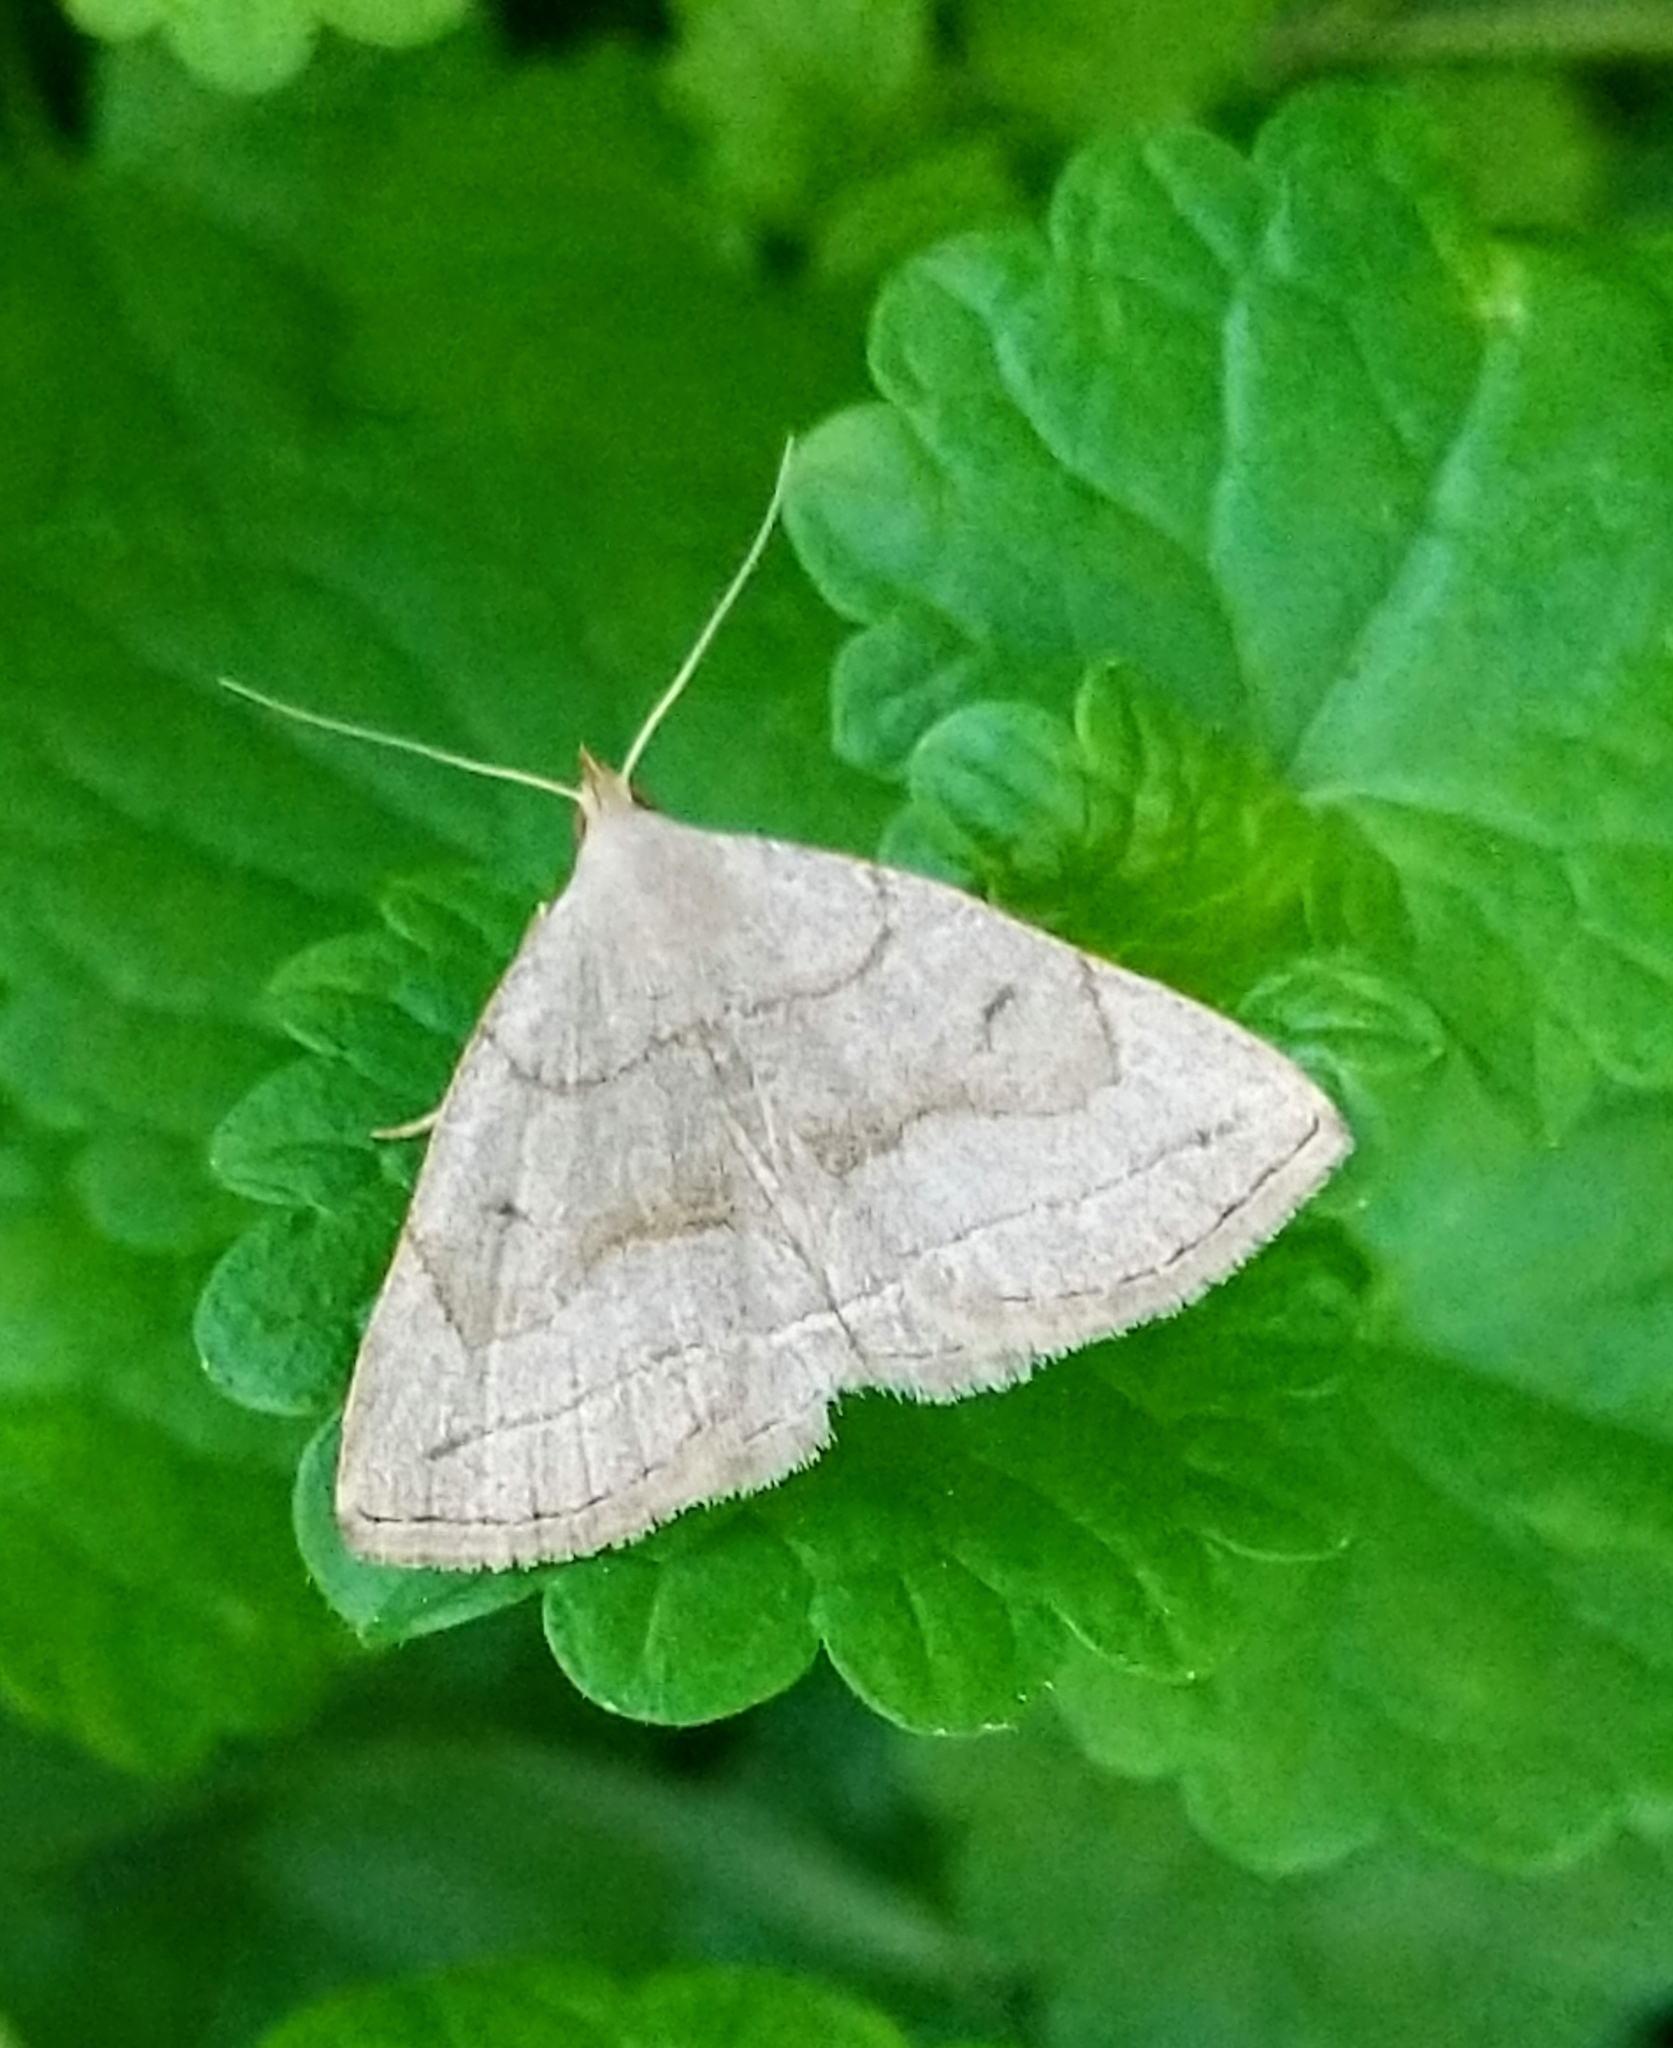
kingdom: Animalia
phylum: Arthropoda
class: Insecta
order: Lepidoptera
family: Erebidae
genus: Zanclognatha
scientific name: Zanclognatha pedipilalis
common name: Grayish fan-foot
